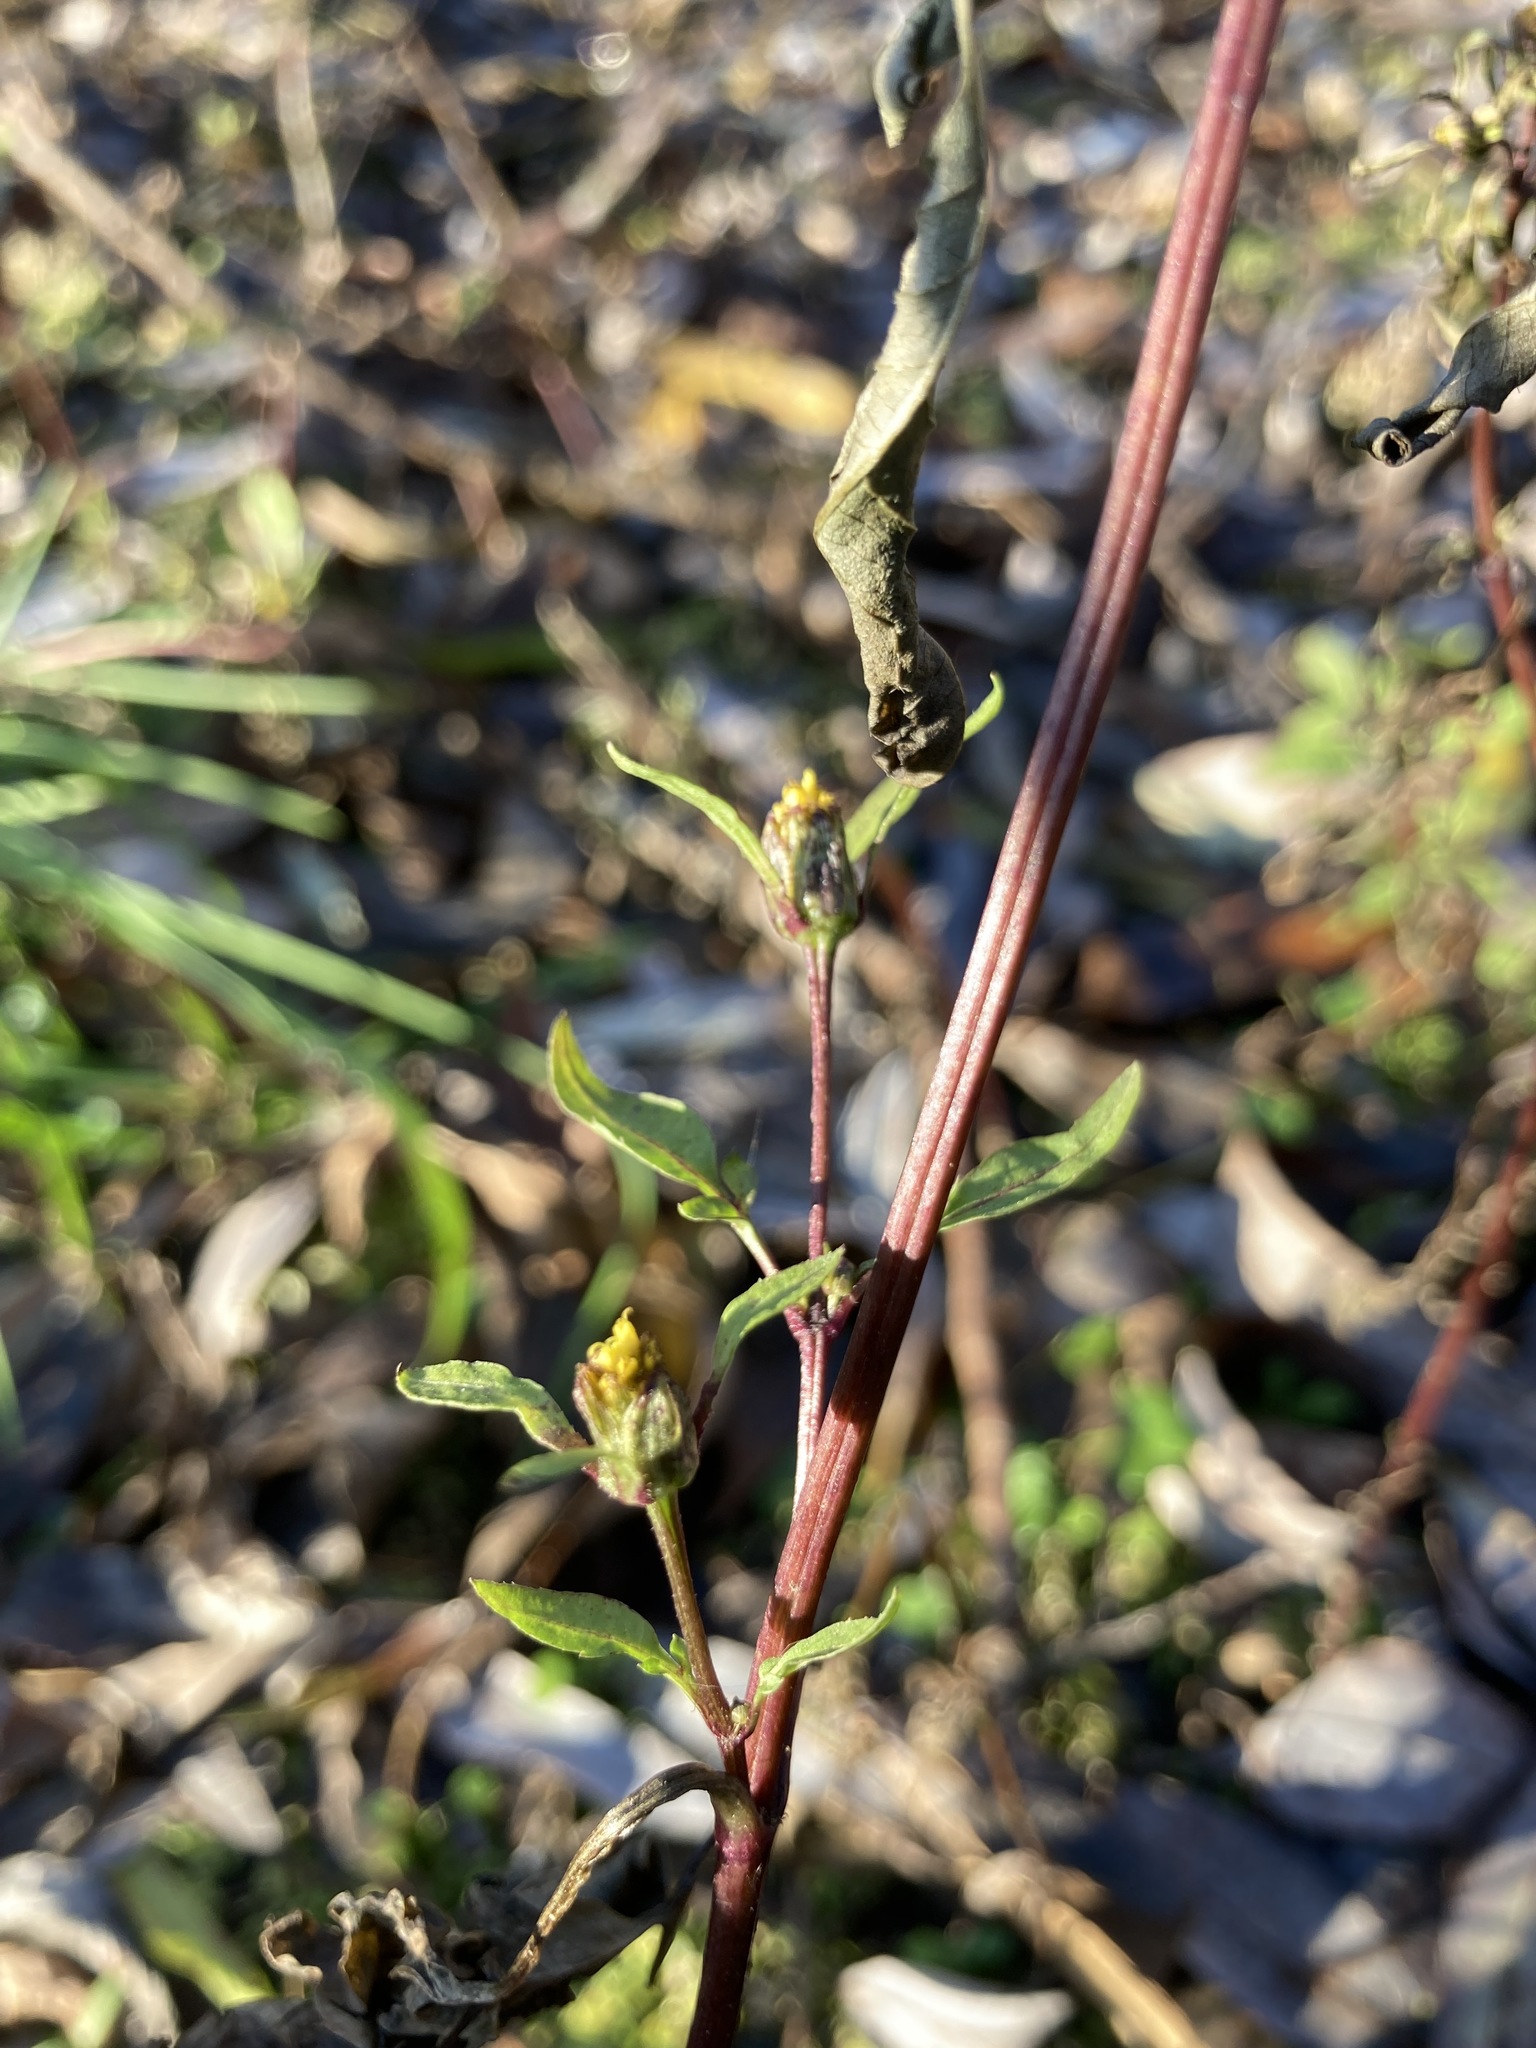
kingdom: Plantae
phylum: Tracheophyta
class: Magnoliopsida
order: Asterales
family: Asteraceae
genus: Bidens
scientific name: Bidens frondosa
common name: Beggarticks
